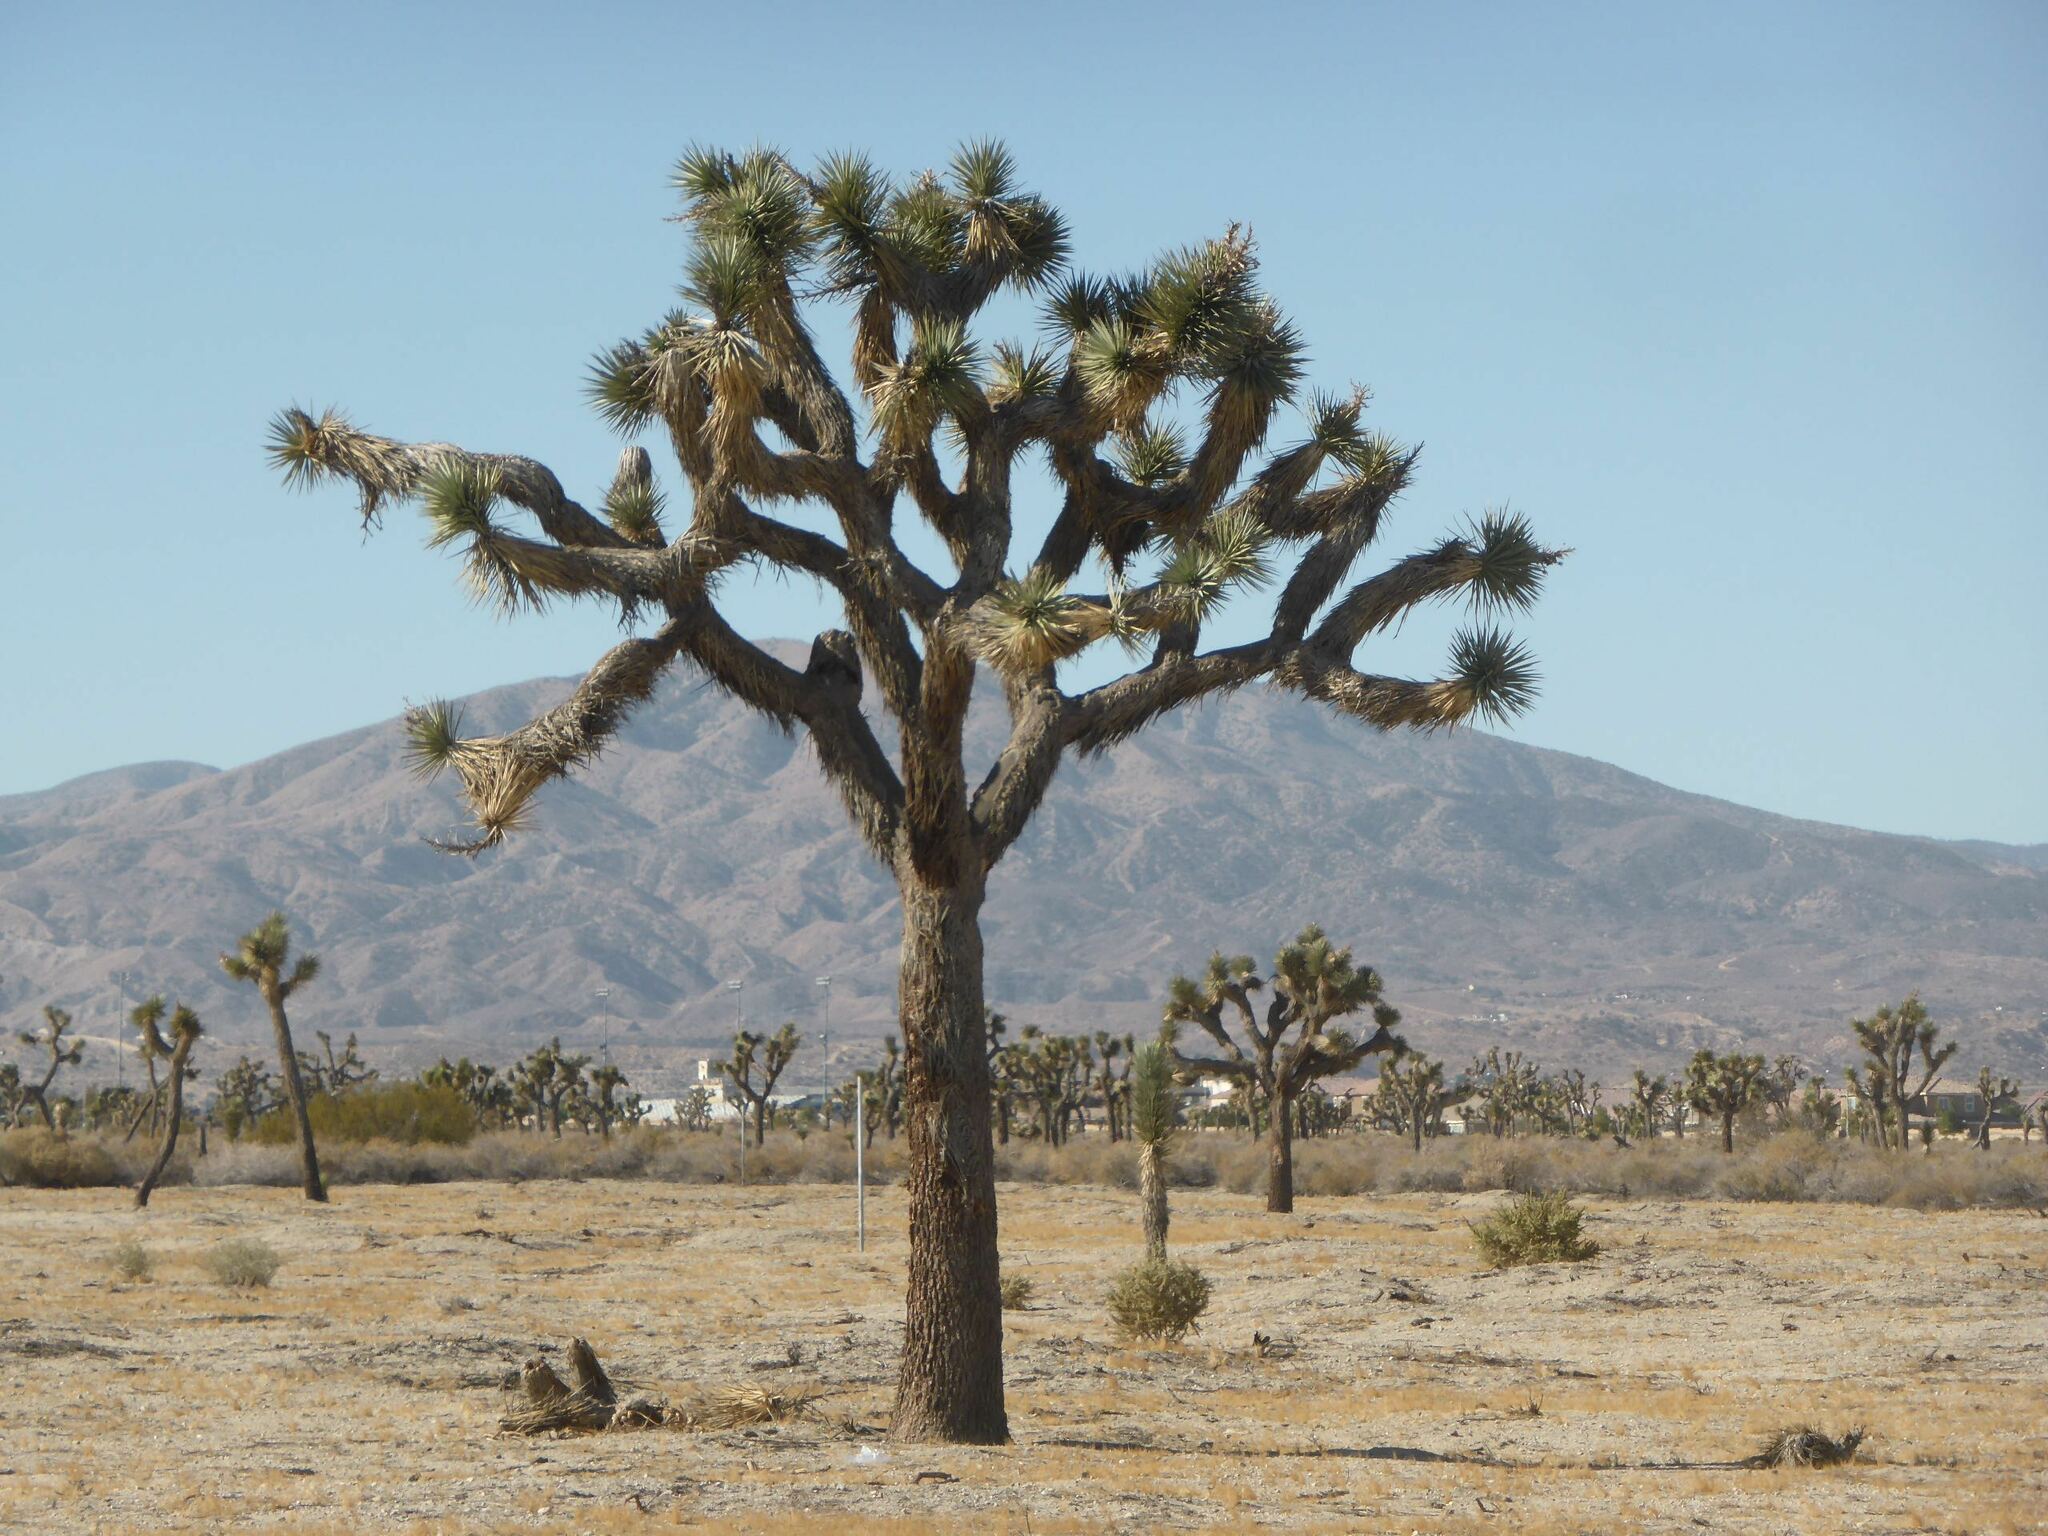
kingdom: Plantae
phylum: Tracheophyta
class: Liliopsida
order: Asparagales
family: Asparagaceae
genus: Yucca
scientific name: Yucca brevifolia
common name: Joshua tree
